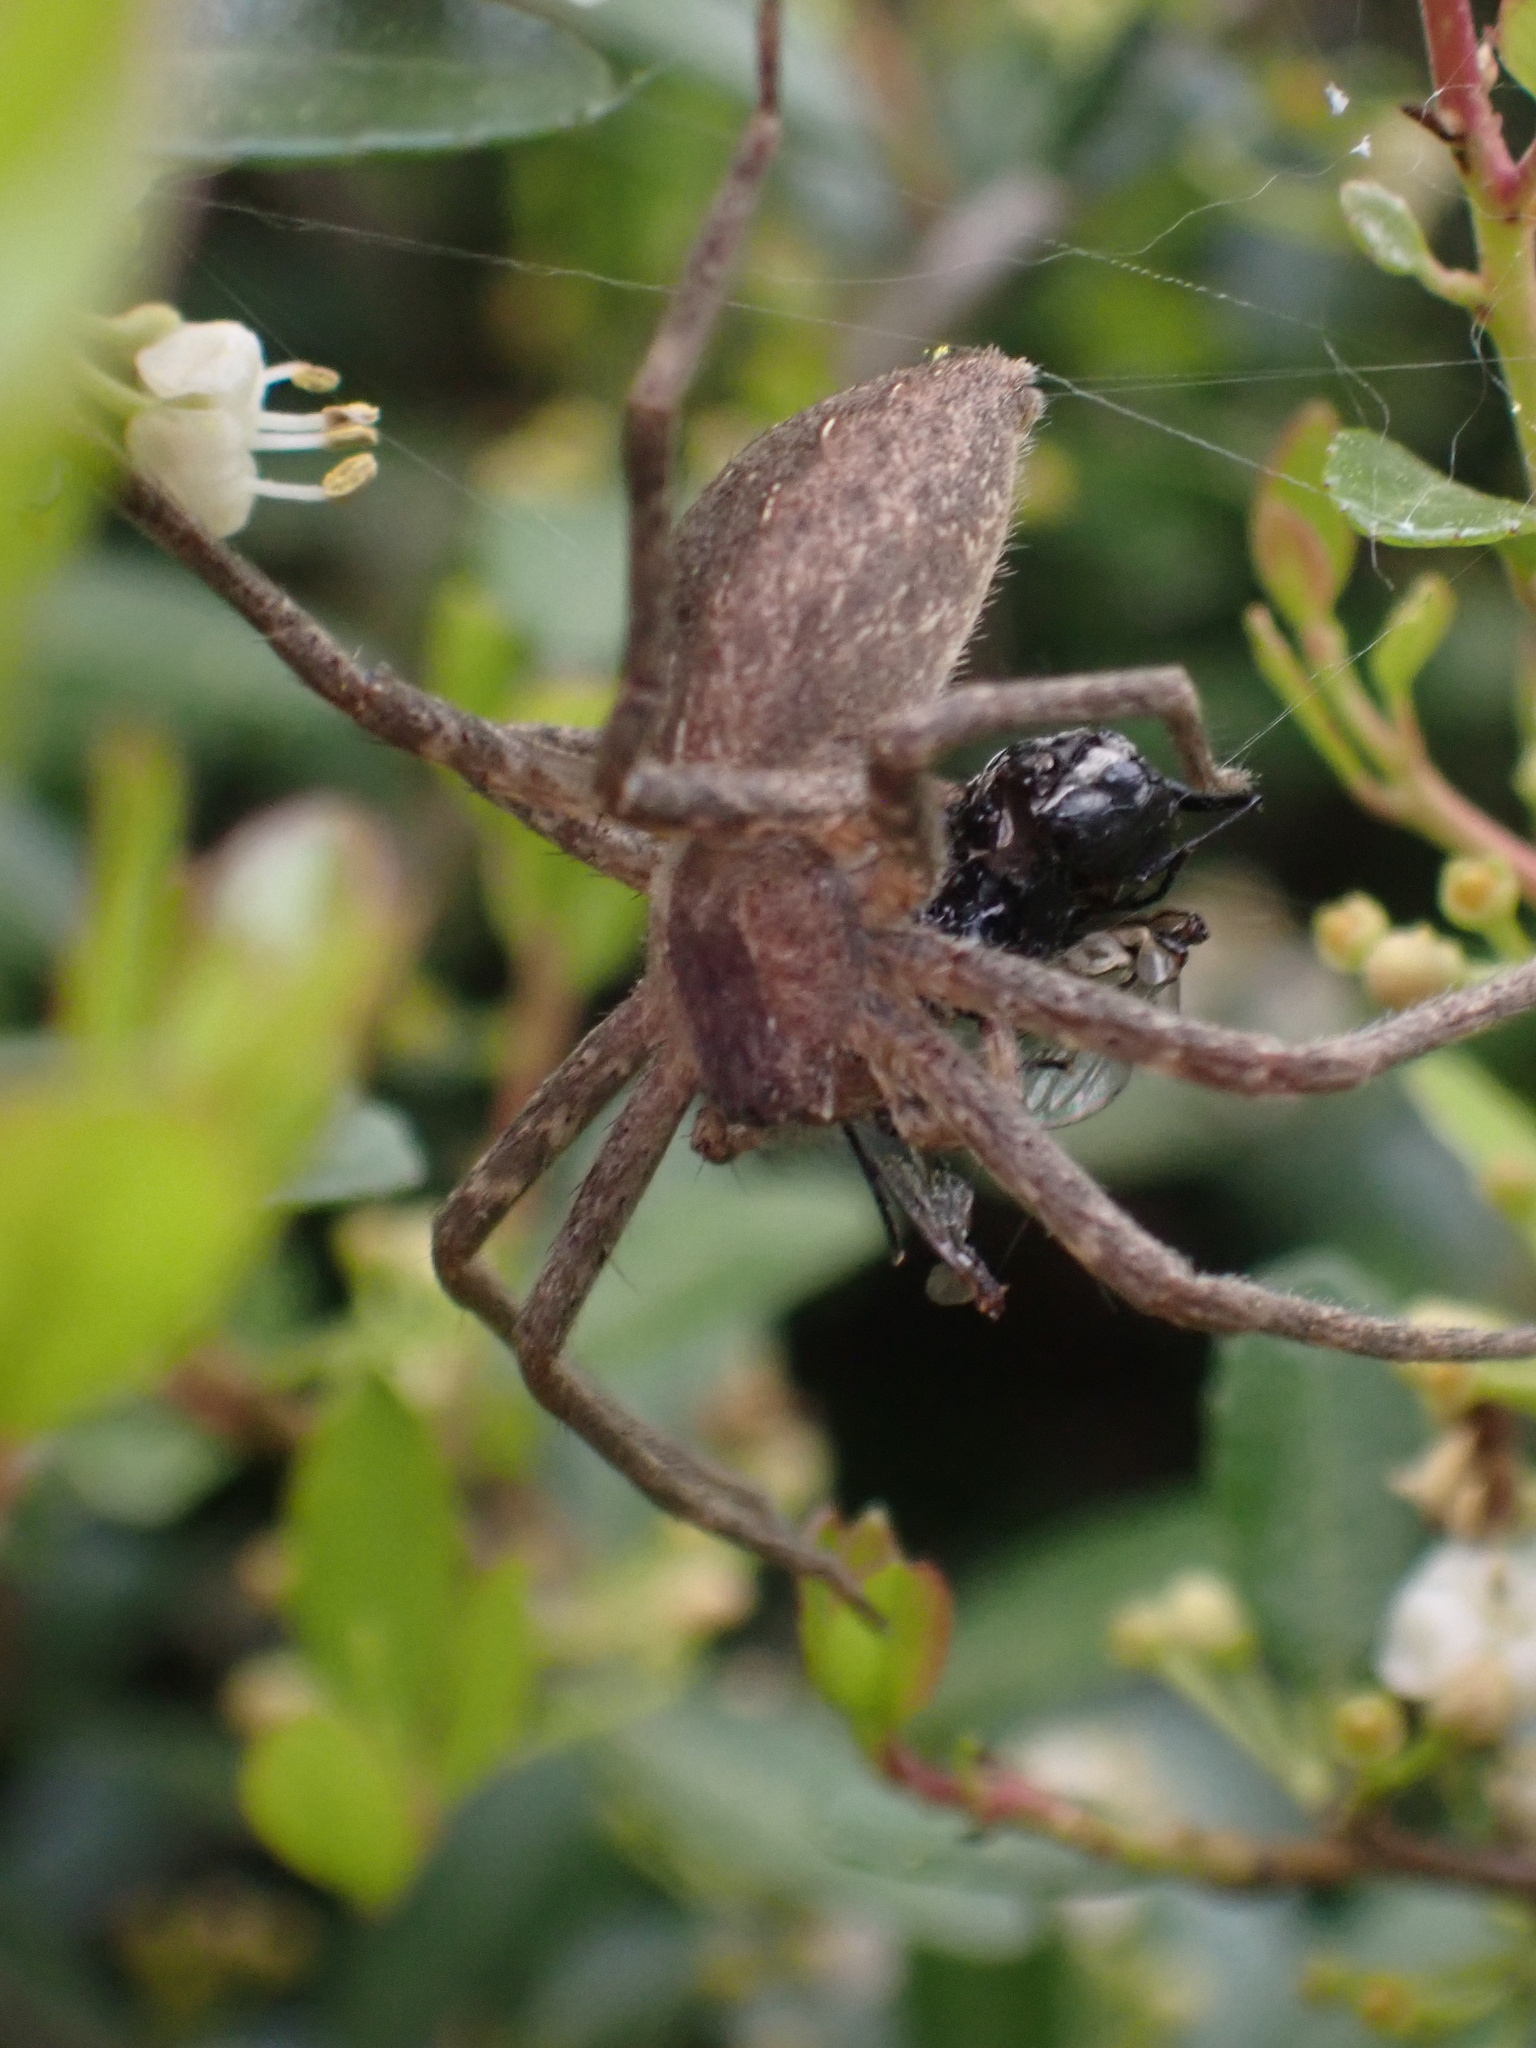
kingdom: Animalia
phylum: Arthropoda
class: Arachnida
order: Araneae
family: Pisauridae
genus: Pisaurina
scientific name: Pisaurina mira
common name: American nursery web spider
